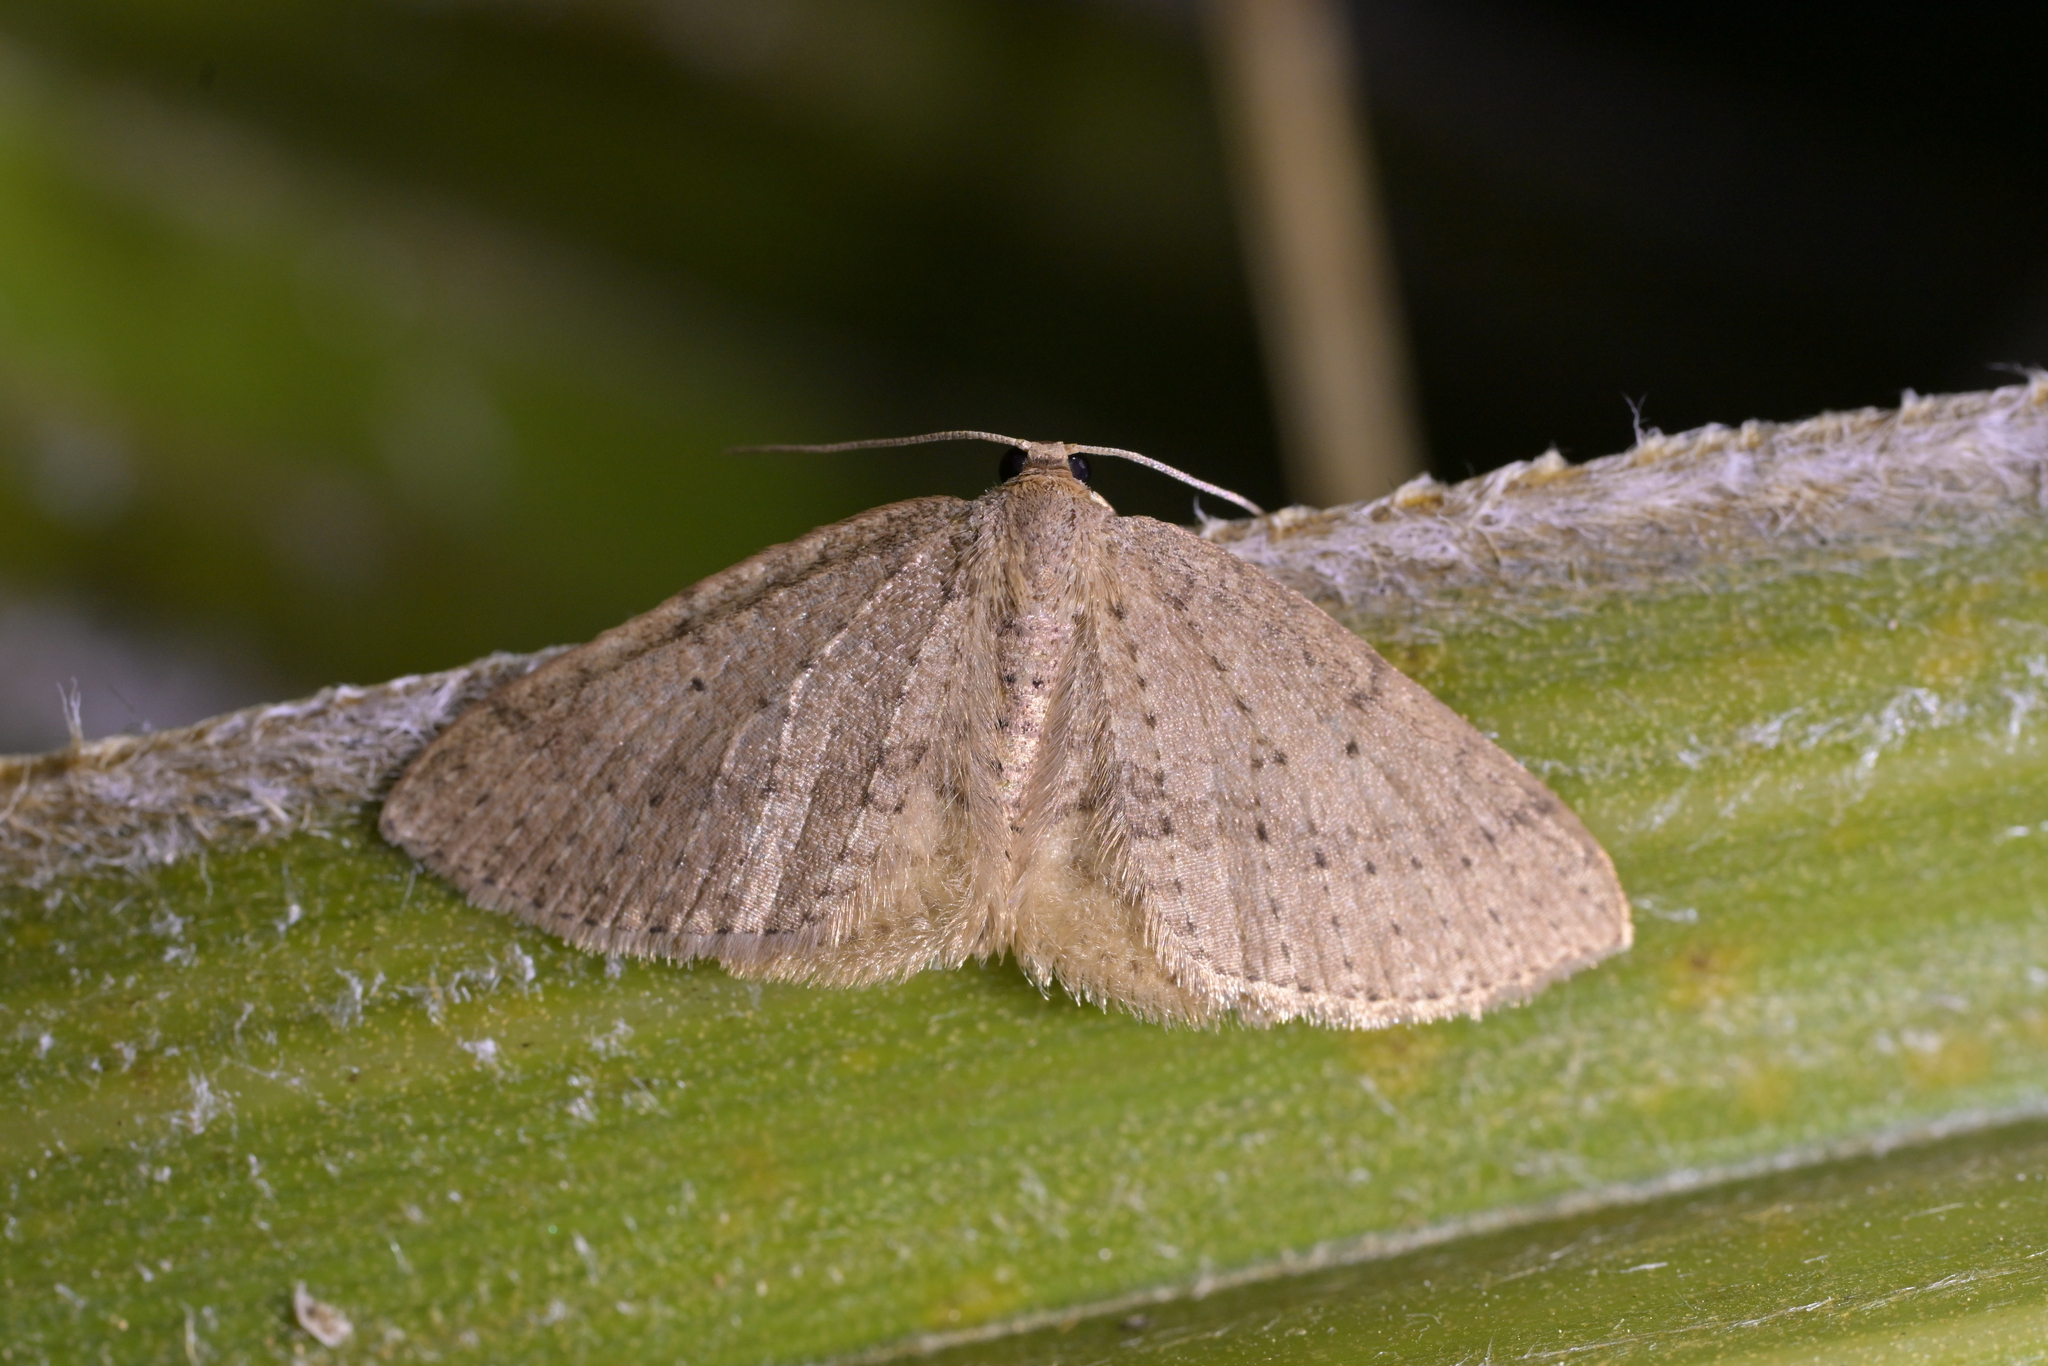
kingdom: Animalia
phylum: Arthropoda
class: Insecta
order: Lepidoptera
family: Geometridae
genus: Poecilasthena
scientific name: Poecilasthena schistaria
